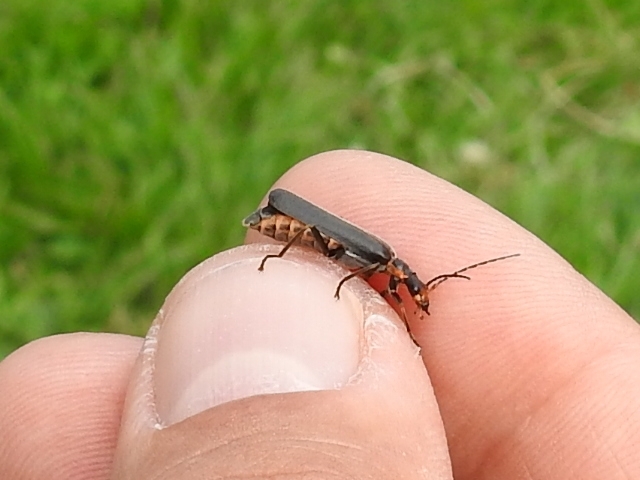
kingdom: Animalia
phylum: Arthropoda
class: Insecta
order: Coleoptera
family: Cantharidae
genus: Podabrus
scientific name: Podabrus alpinus
